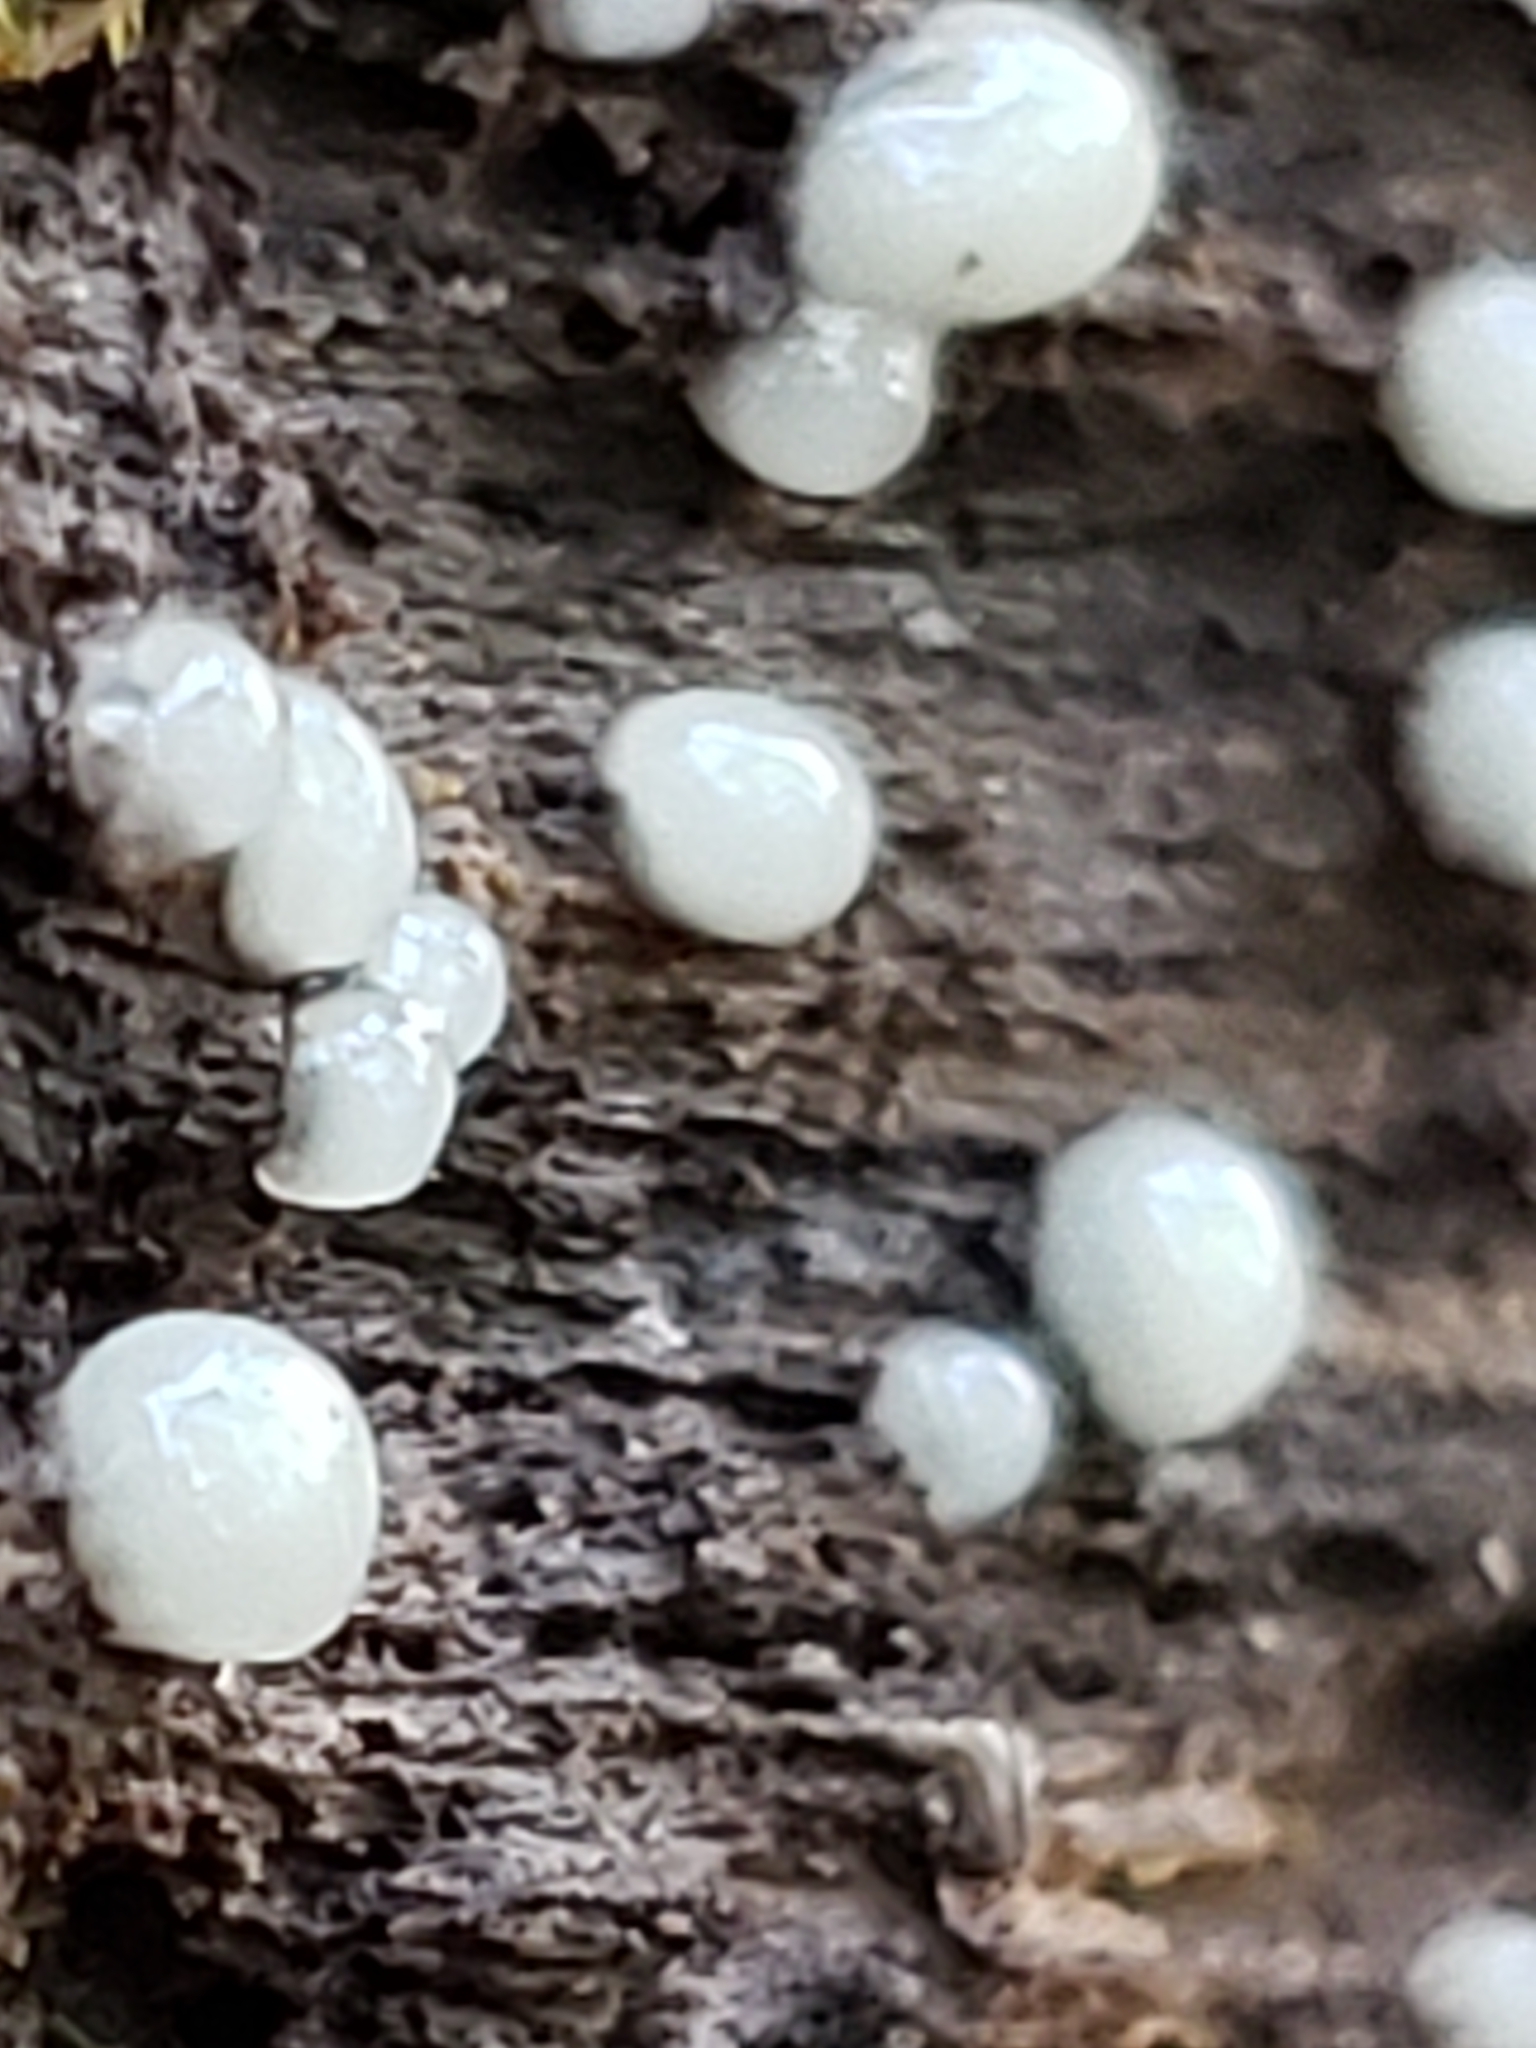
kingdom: Fungi
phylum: Basidiomycota
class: Atractiellomycetes
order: Atractiellales
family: Phleogenaceae
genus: Helicogloea
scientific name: Helicogloea compressa
